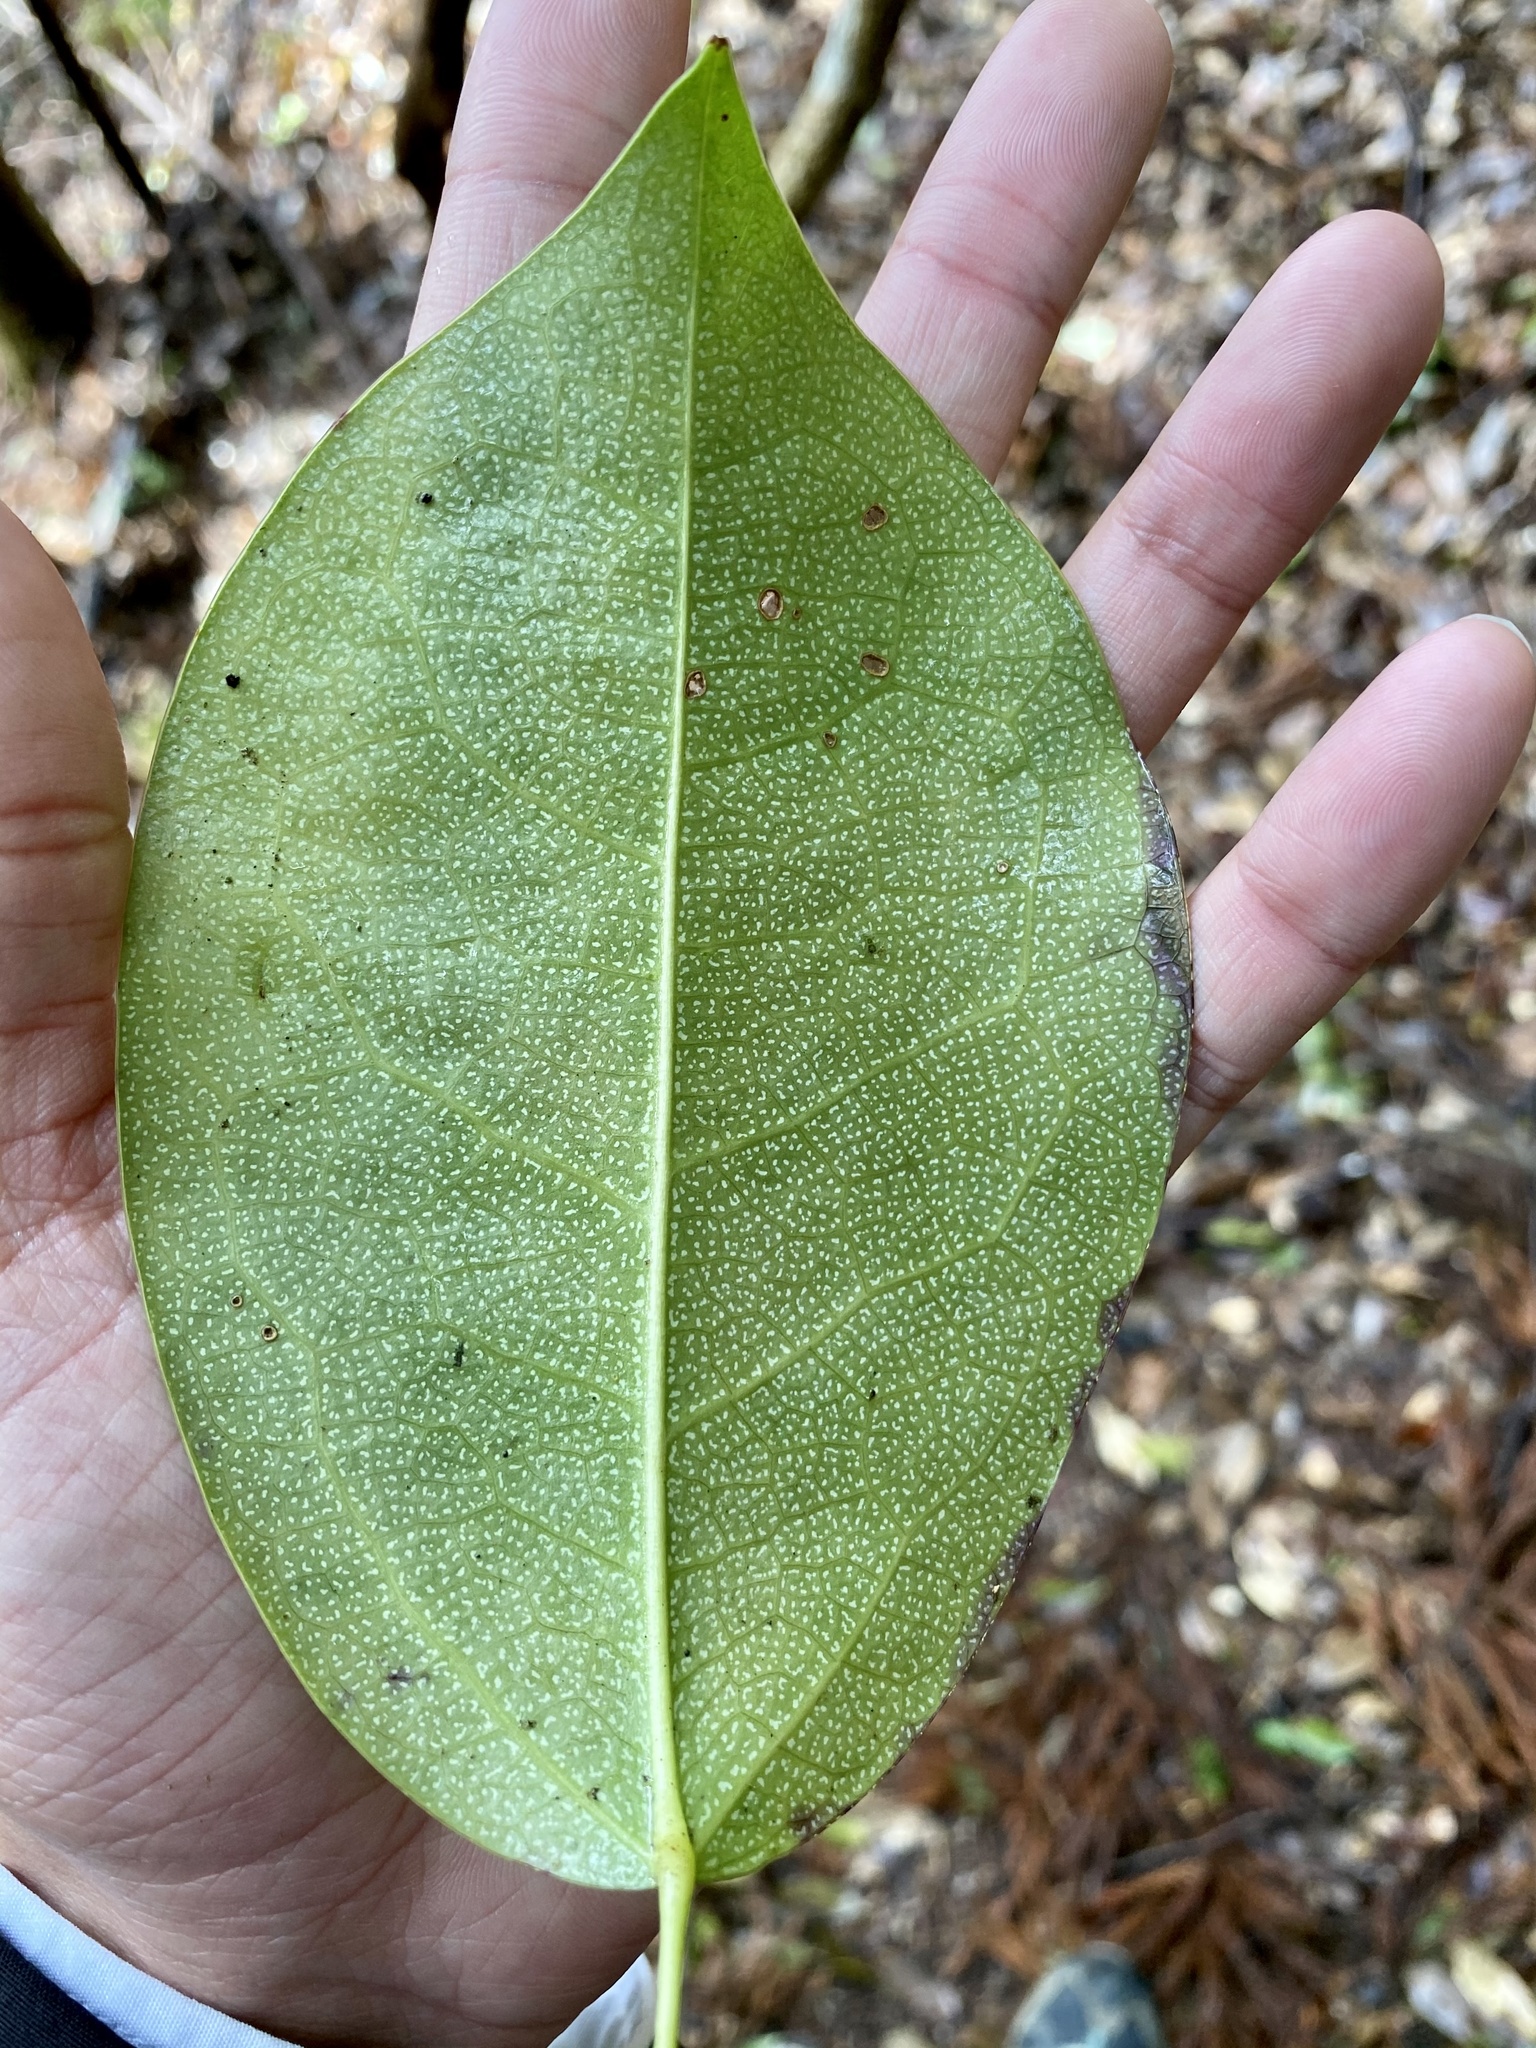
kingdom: Plantae
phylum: Tracheophyta
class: Magnoliopsida
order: Ranunculales
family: Lardizabalaceae
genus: Stauntonia
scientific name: Stauntonia hexaphylla
